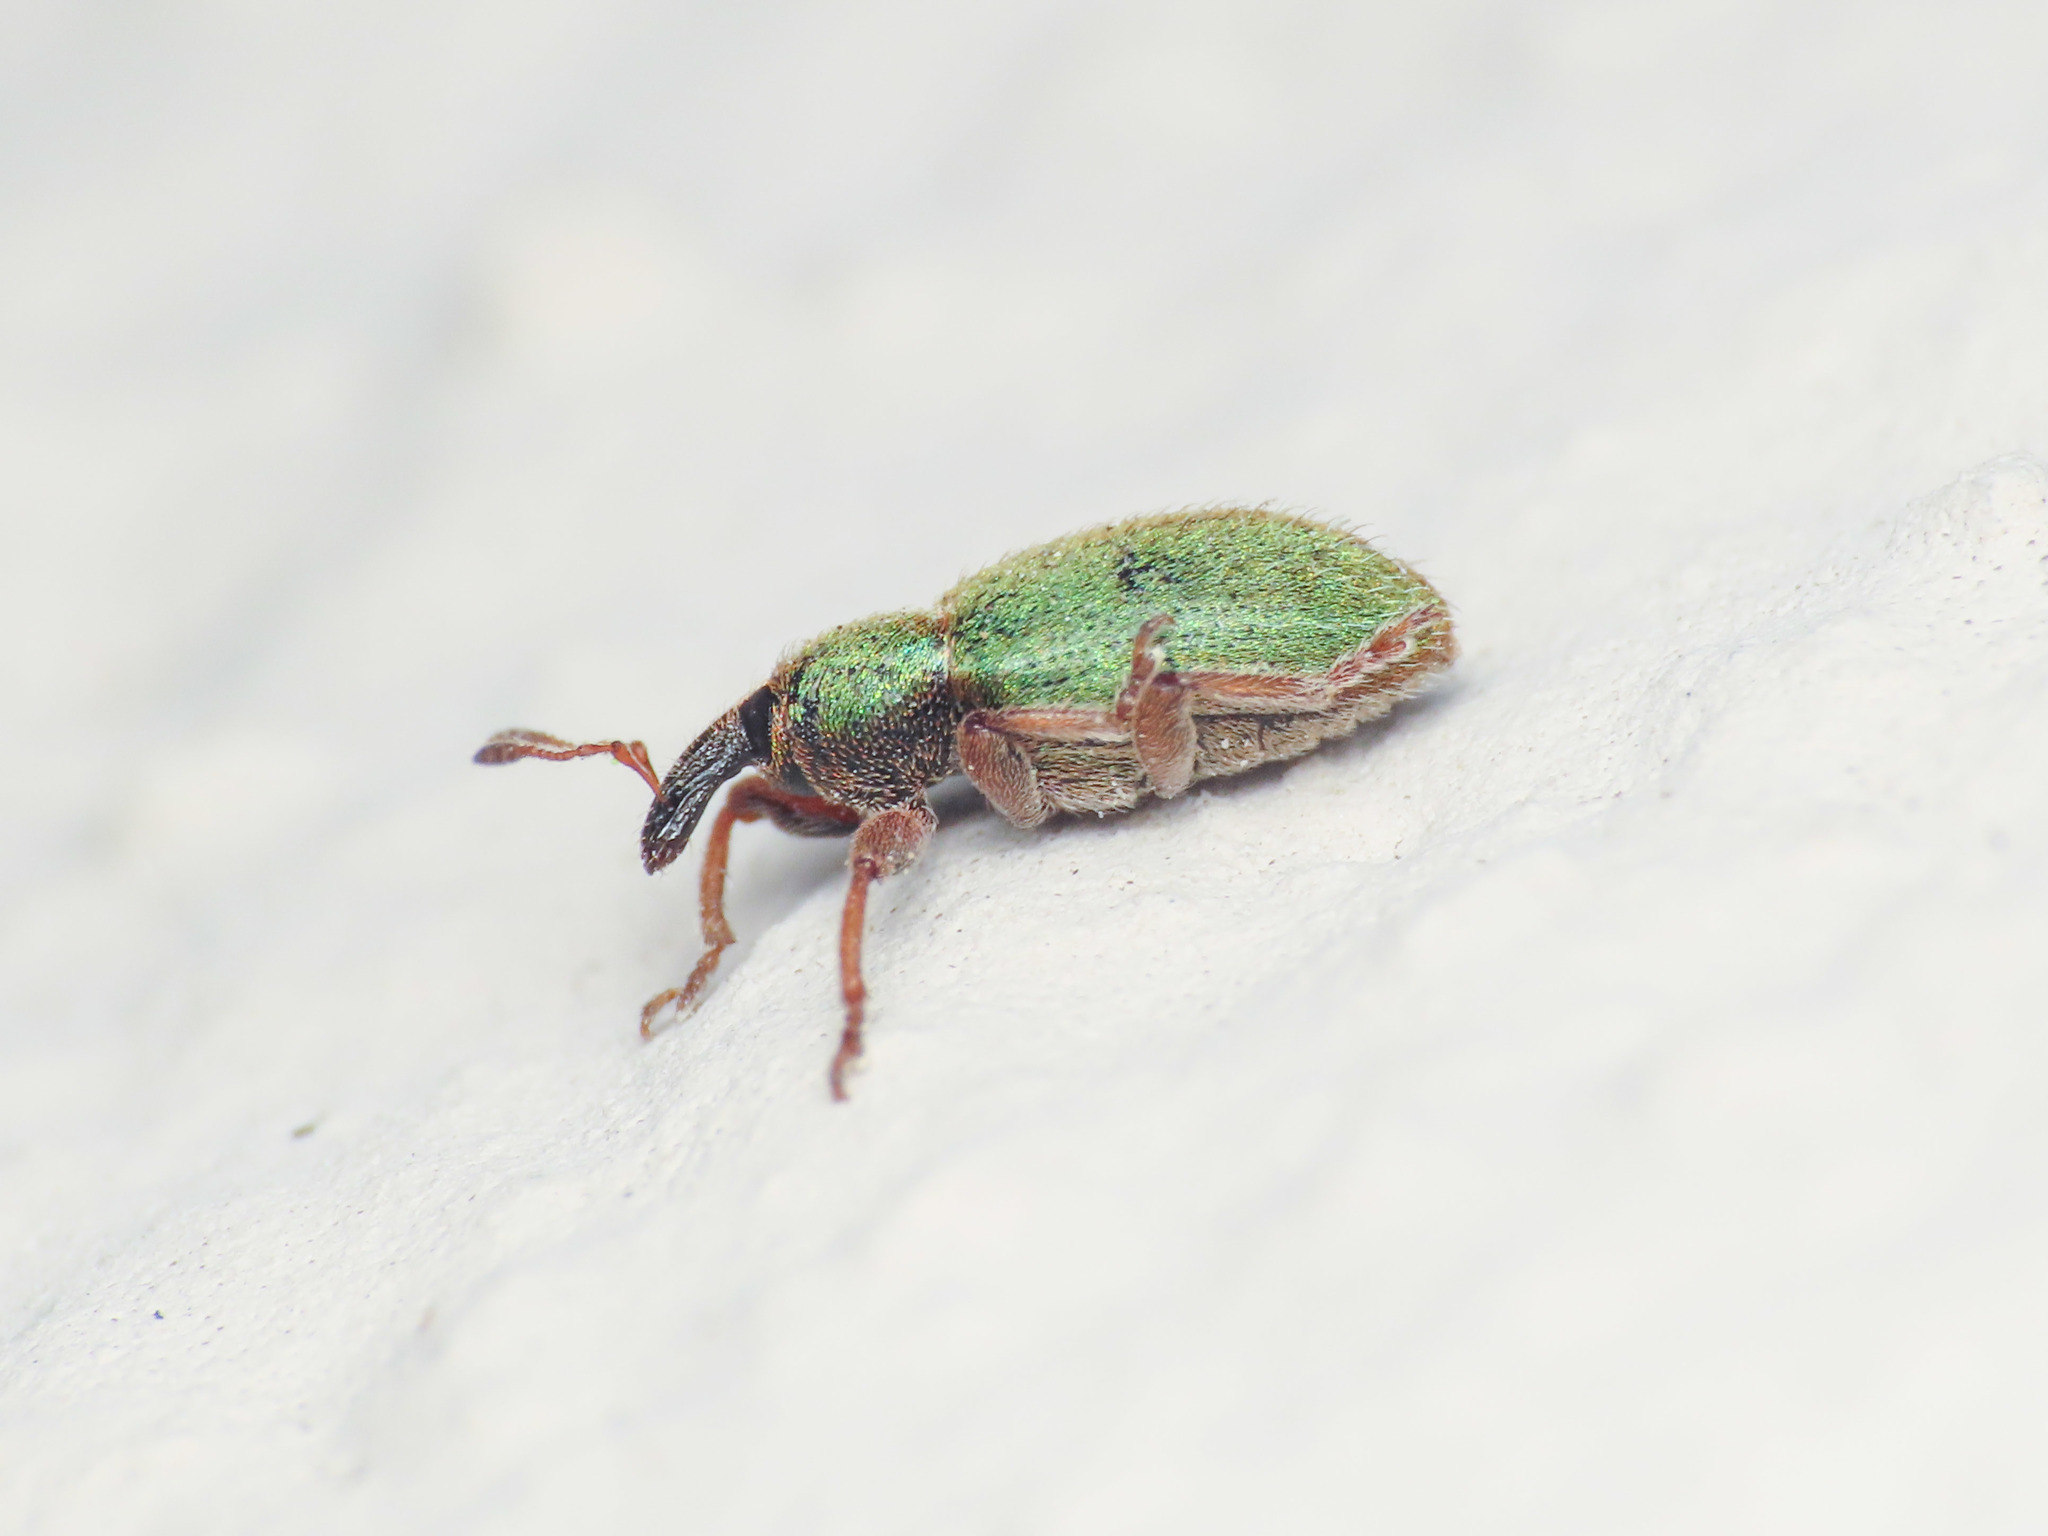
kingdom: Animalia
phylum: Arthropoda
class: Insecta
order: Coleoptera
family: Curculionidae
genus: Hypera
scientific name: Hypera nigrirostris
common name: Black-beaked green weevil
